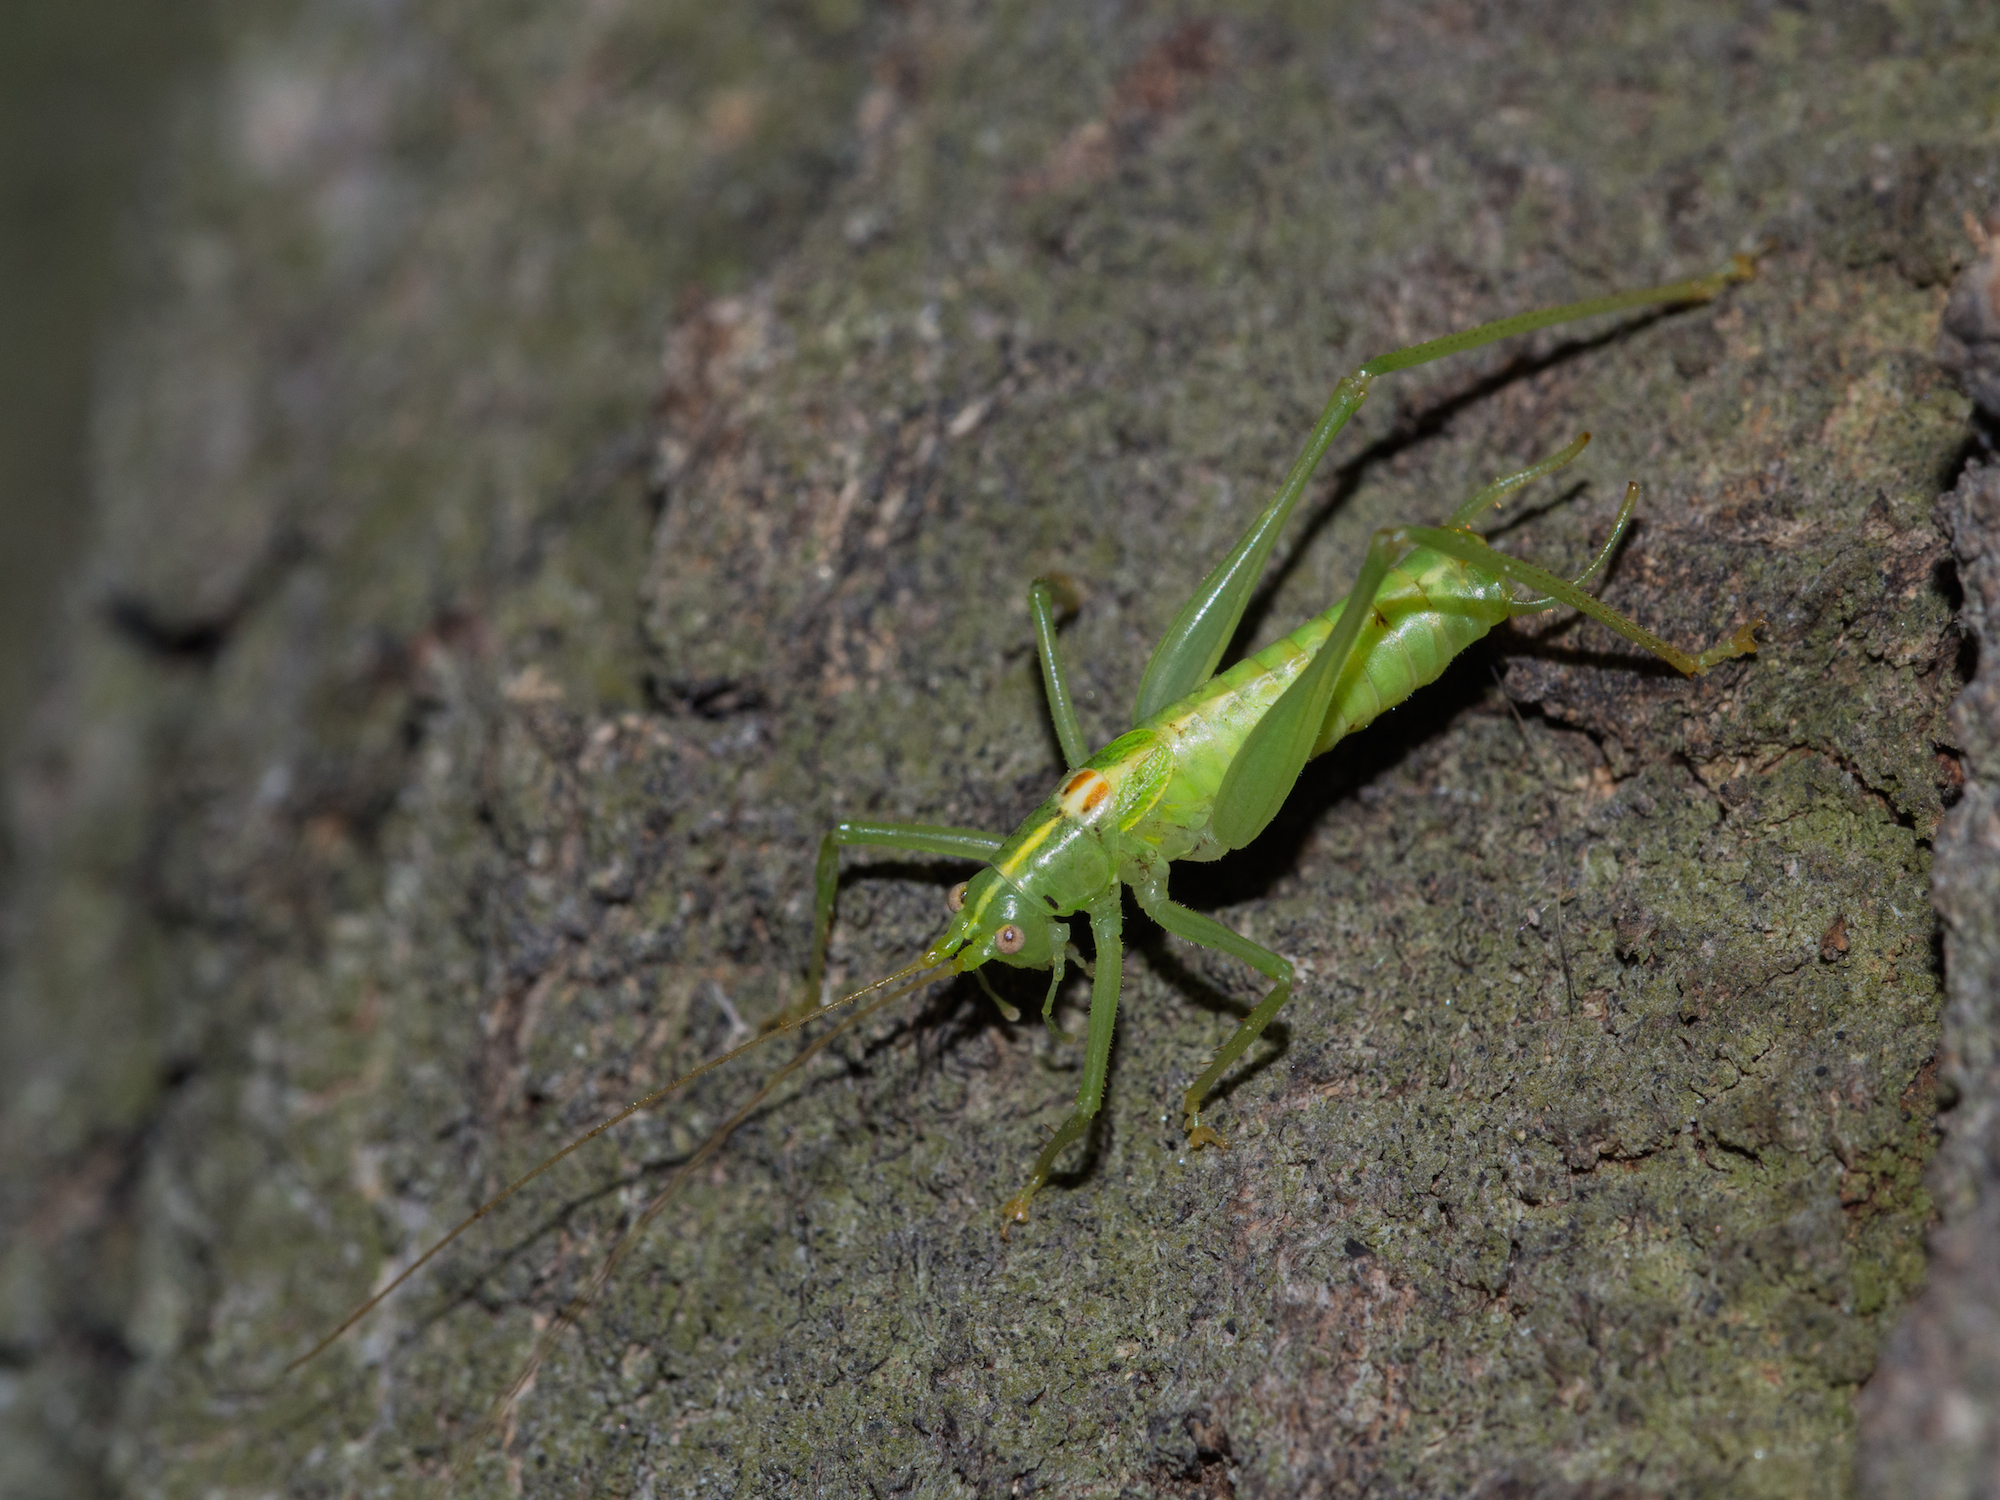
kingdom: Animalia
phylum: Arthropoda
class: Insecta
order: Orthoptera
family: Tettigoniidae
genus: Meconema
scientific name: Meconema meridionale
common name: Southern oak bush-cricket
